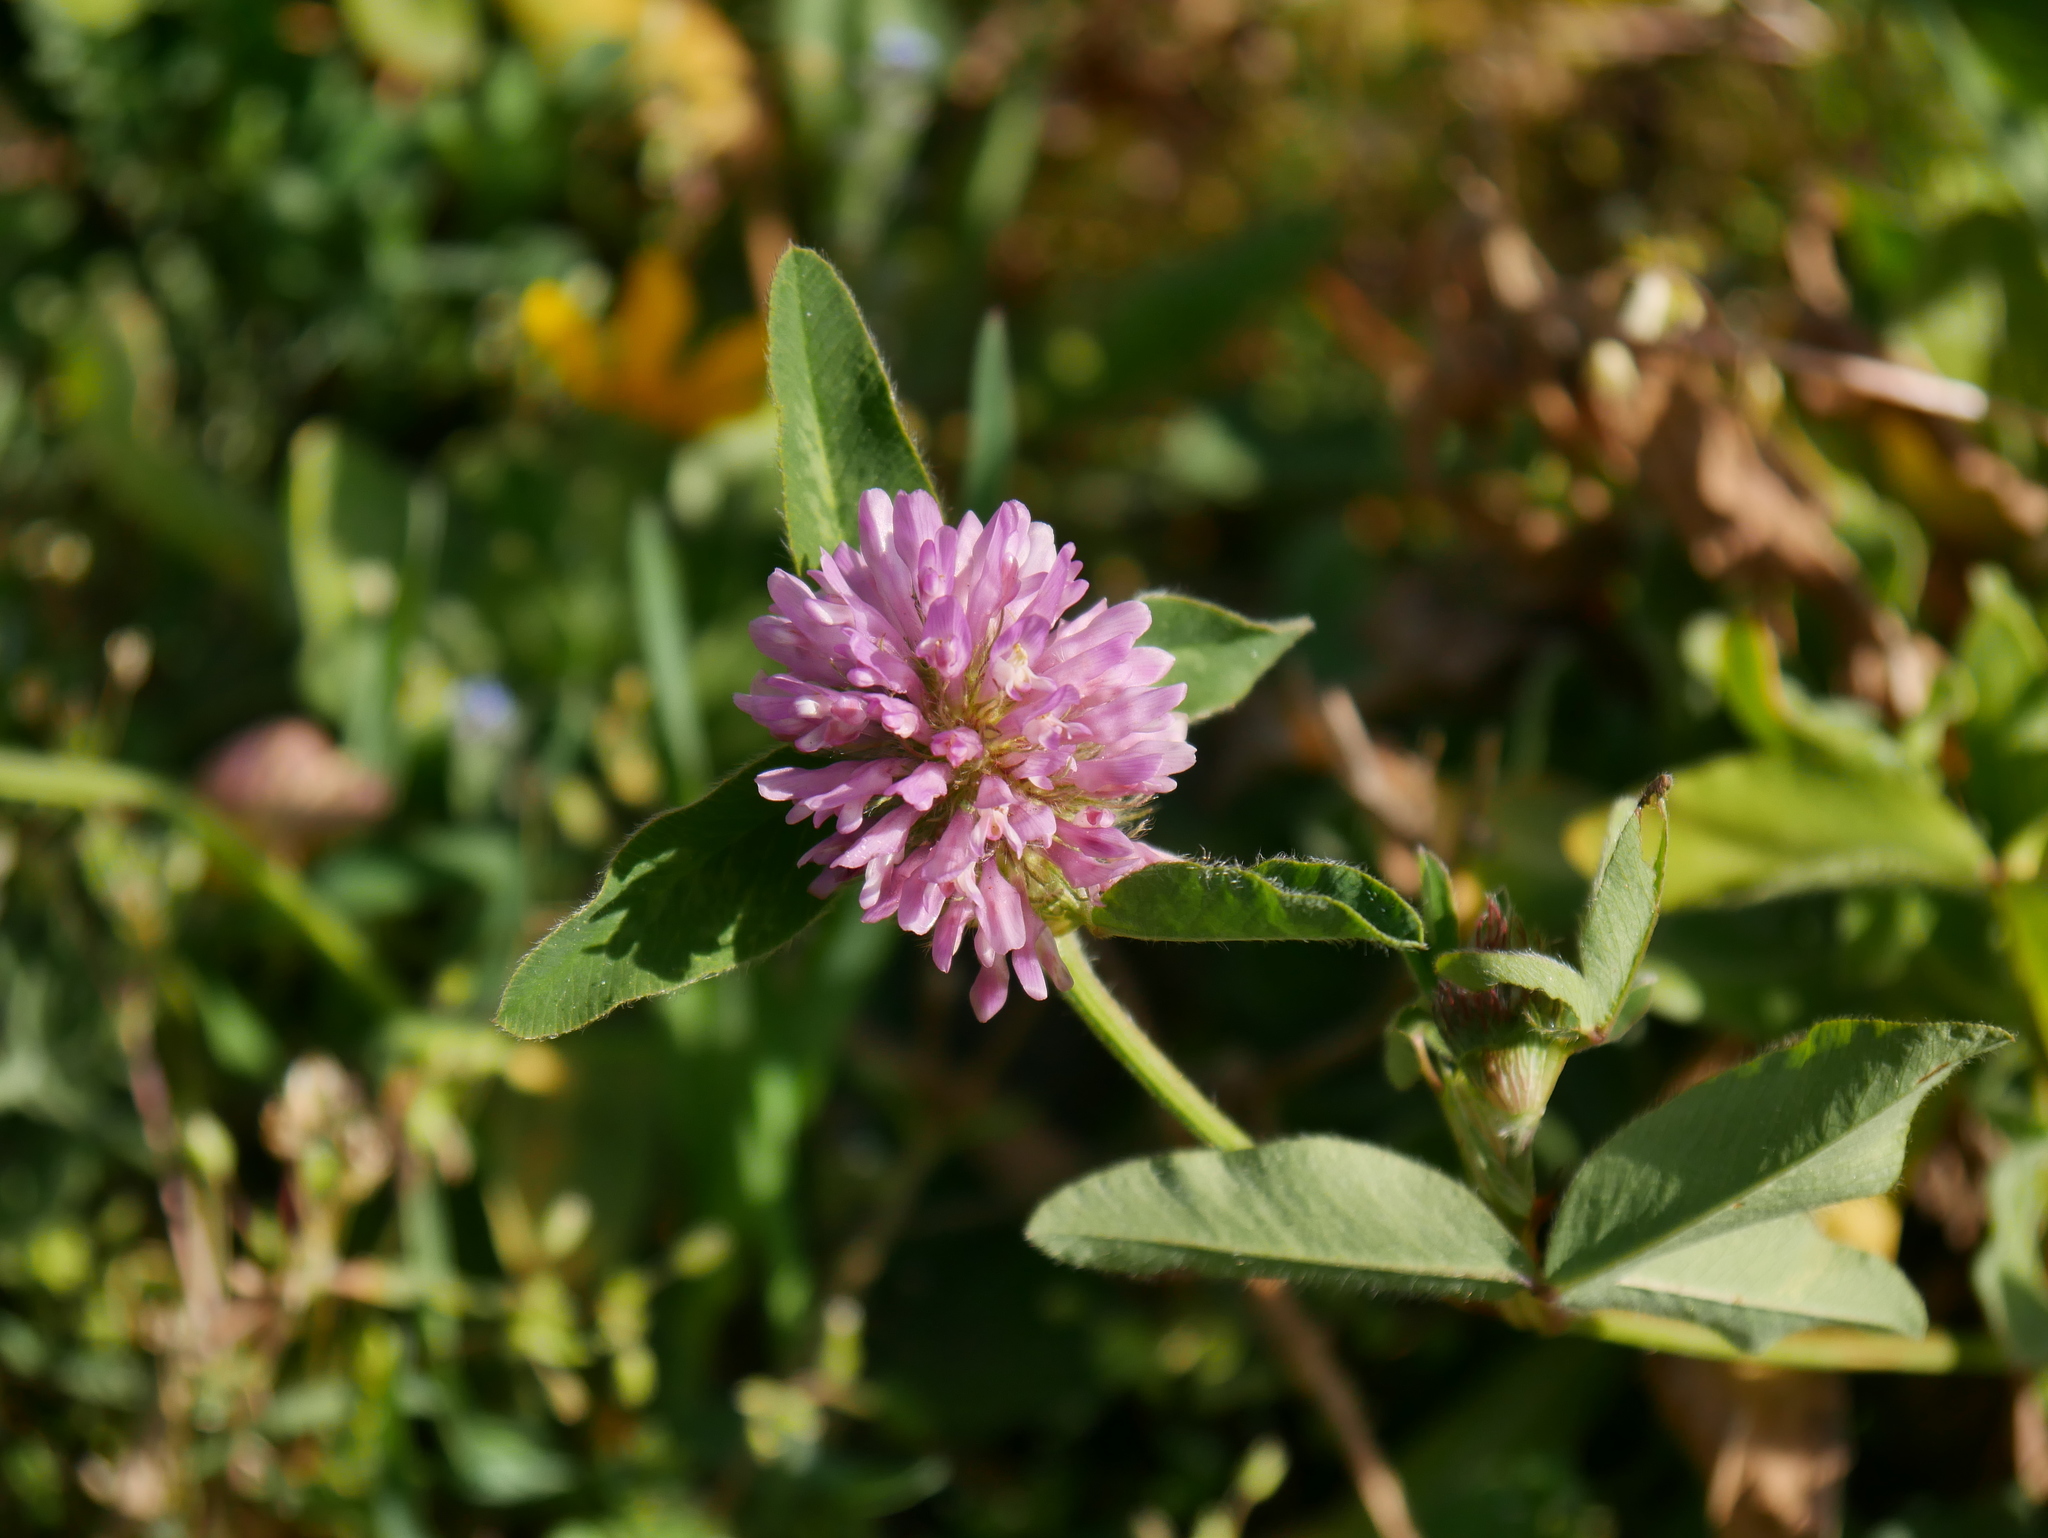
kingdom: Plantae
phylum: Tracheophyta
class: Magnoliopsida
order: Fabales
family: Fabaceae
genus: Trifolium
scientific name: Trifolium pratense
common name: Red clover
